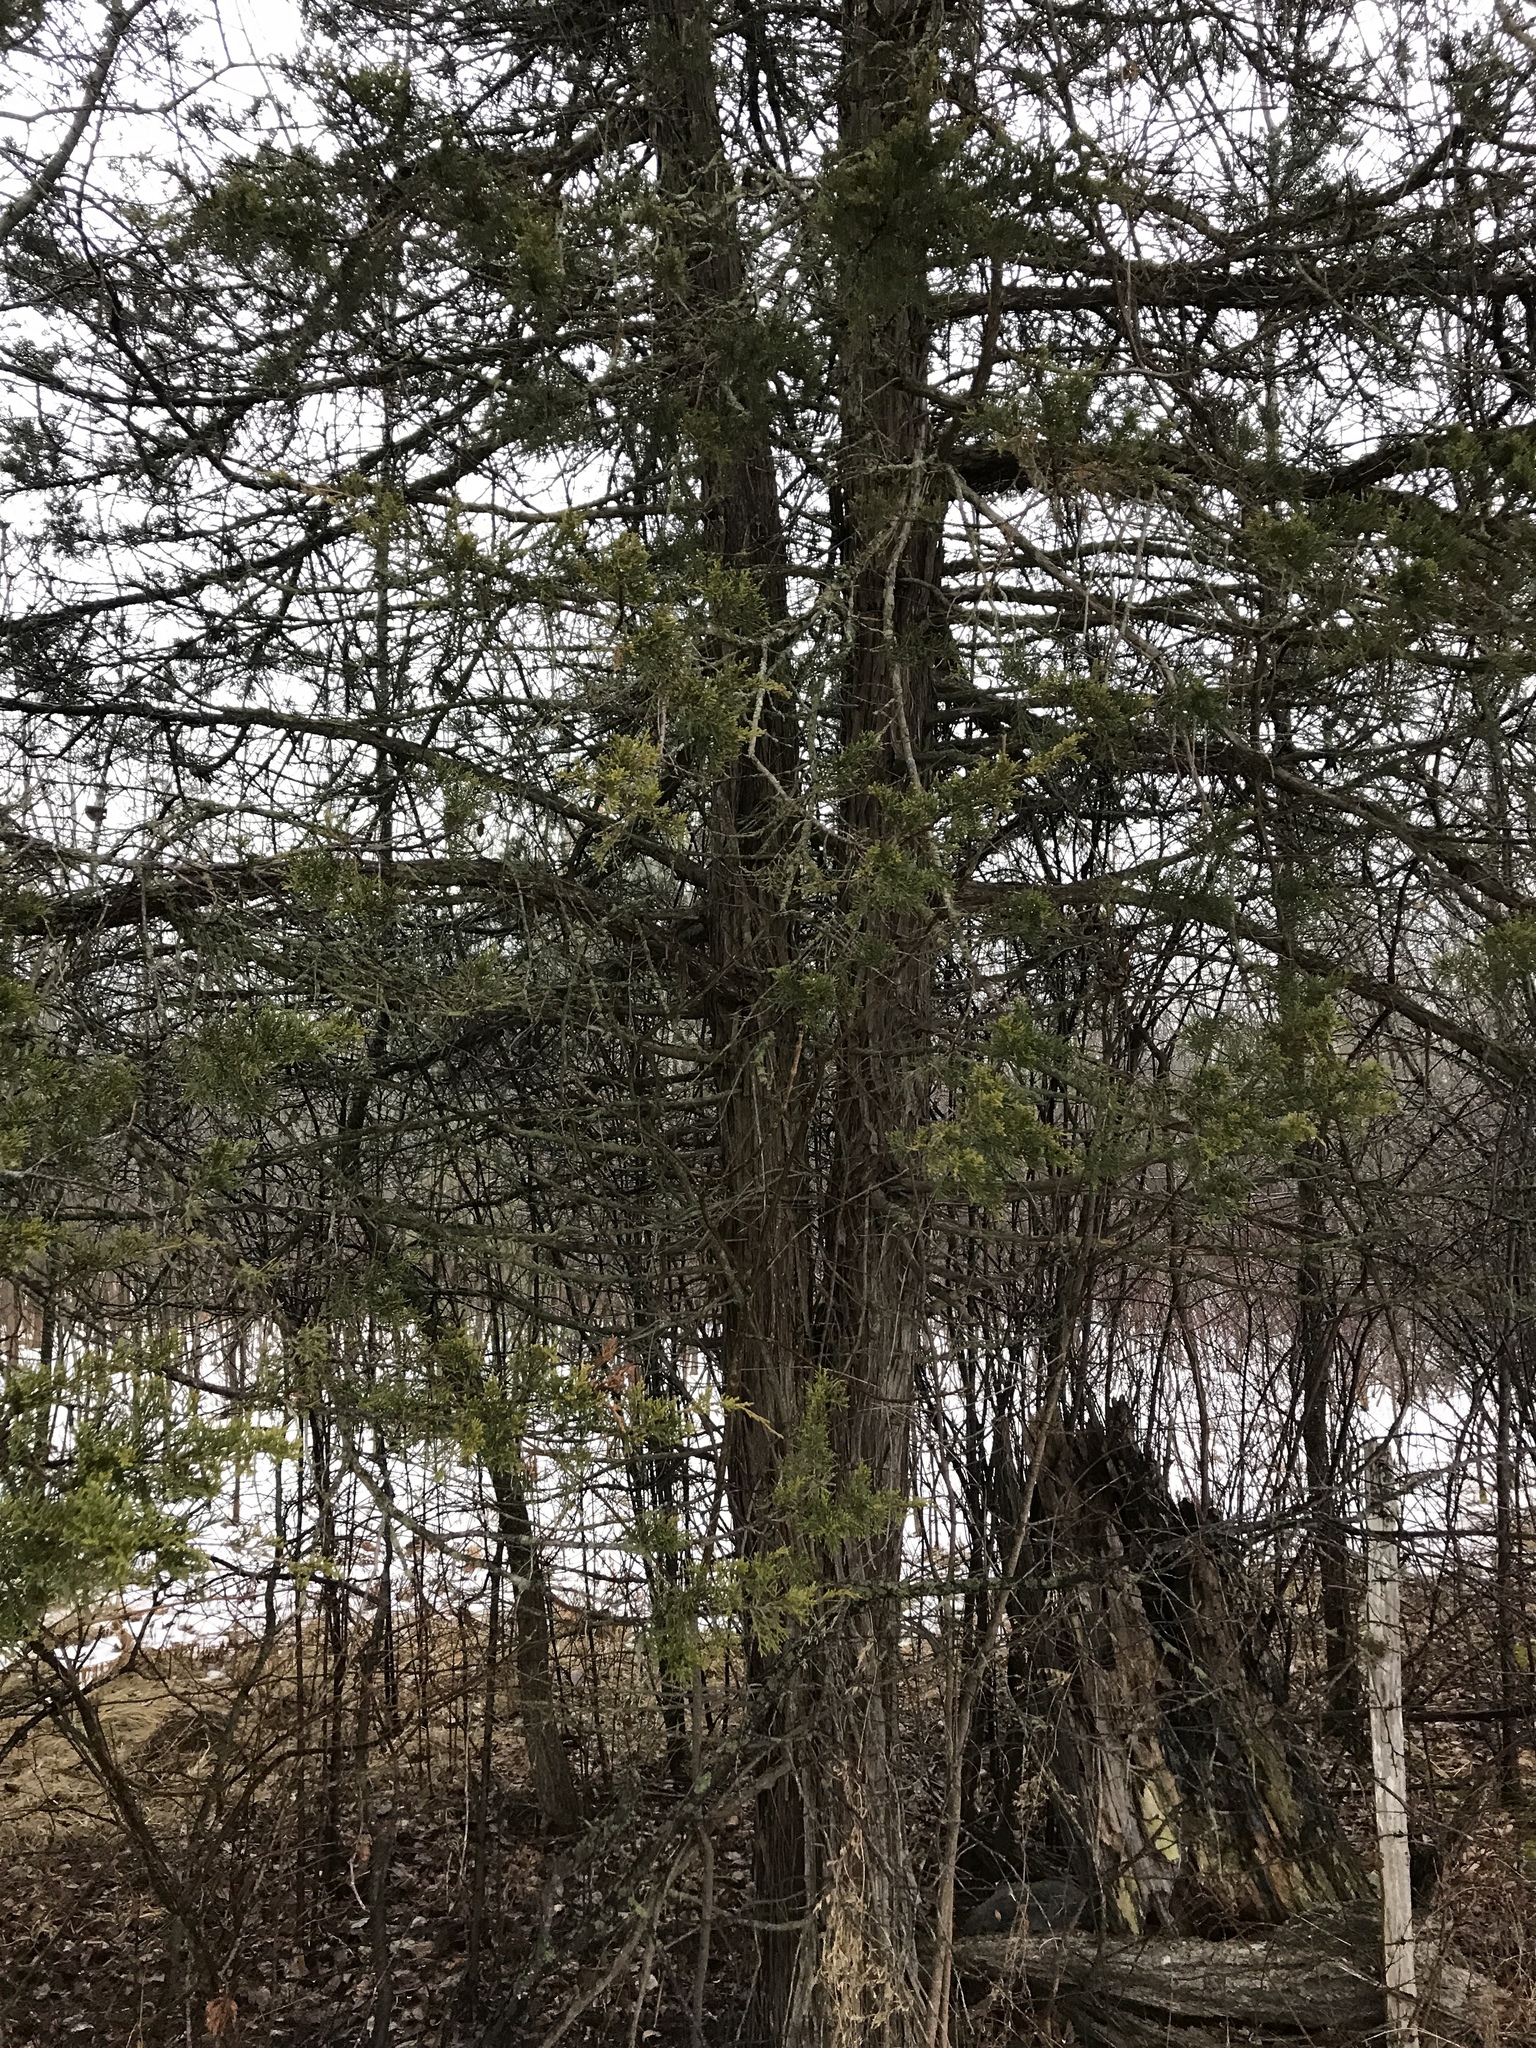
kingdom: Plantae
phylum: Tracheophyta
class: Pinopsida
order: Pinales
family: Cupressaceae
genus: Juniperus
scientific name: Juniperus virginiana
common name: Red juniper
